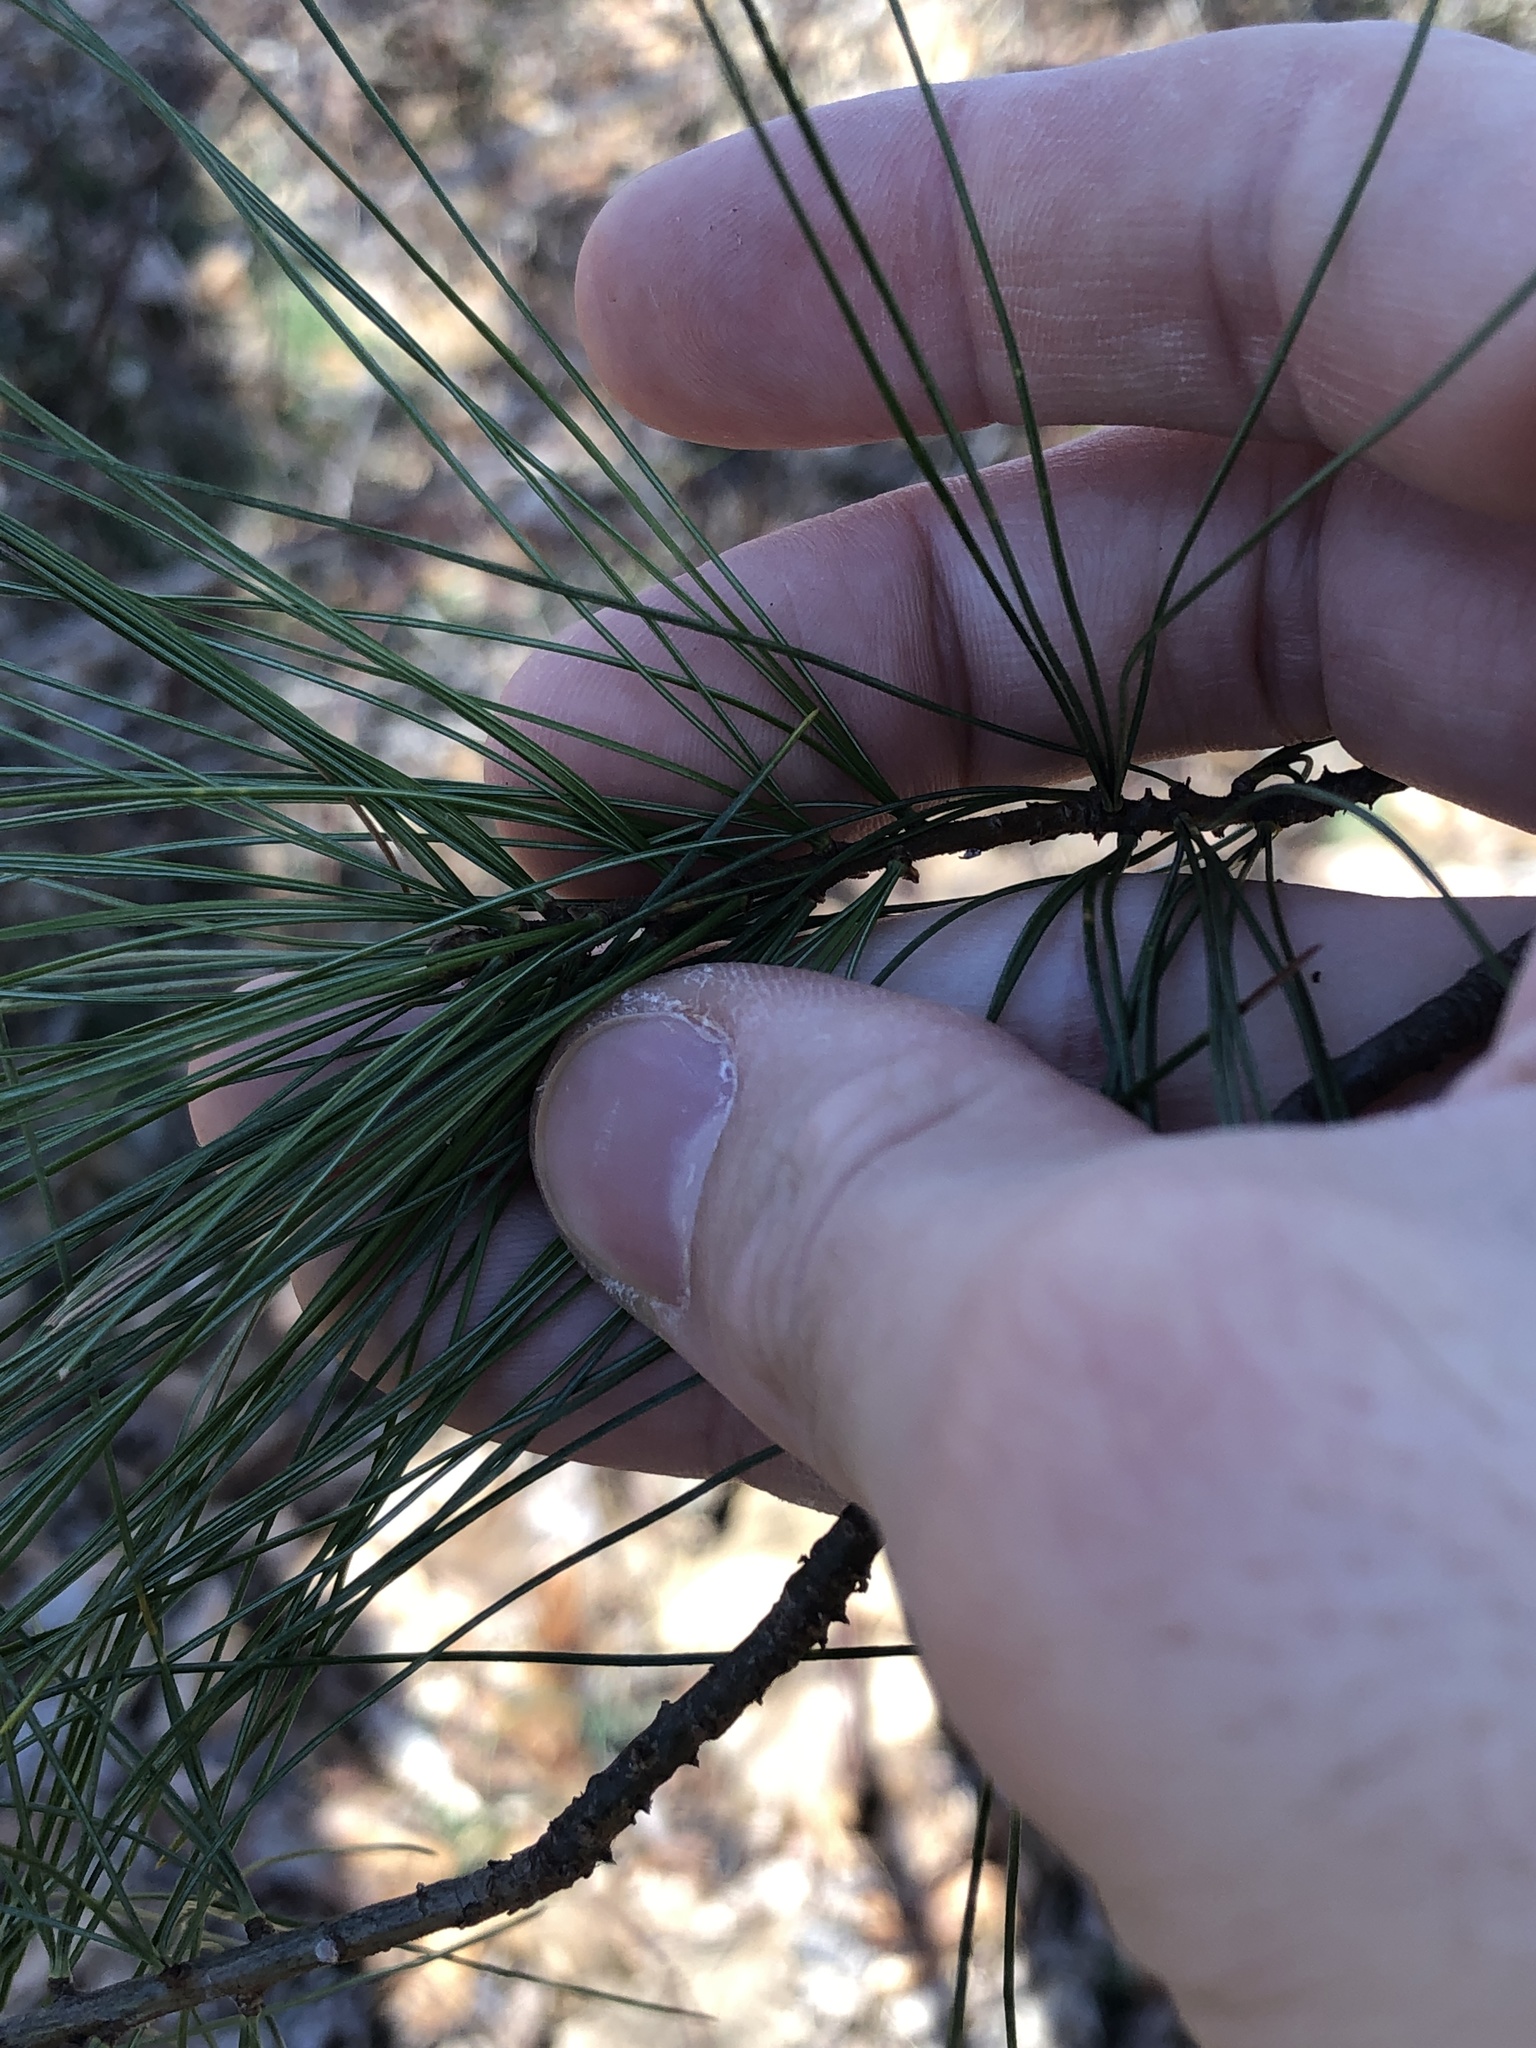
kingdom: Plantae
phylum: Tracheophyta
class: Pinopsida
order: Pinales
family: Pinaceae
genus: Pinus
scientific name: Pinus strobus
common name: Weymouth pine
